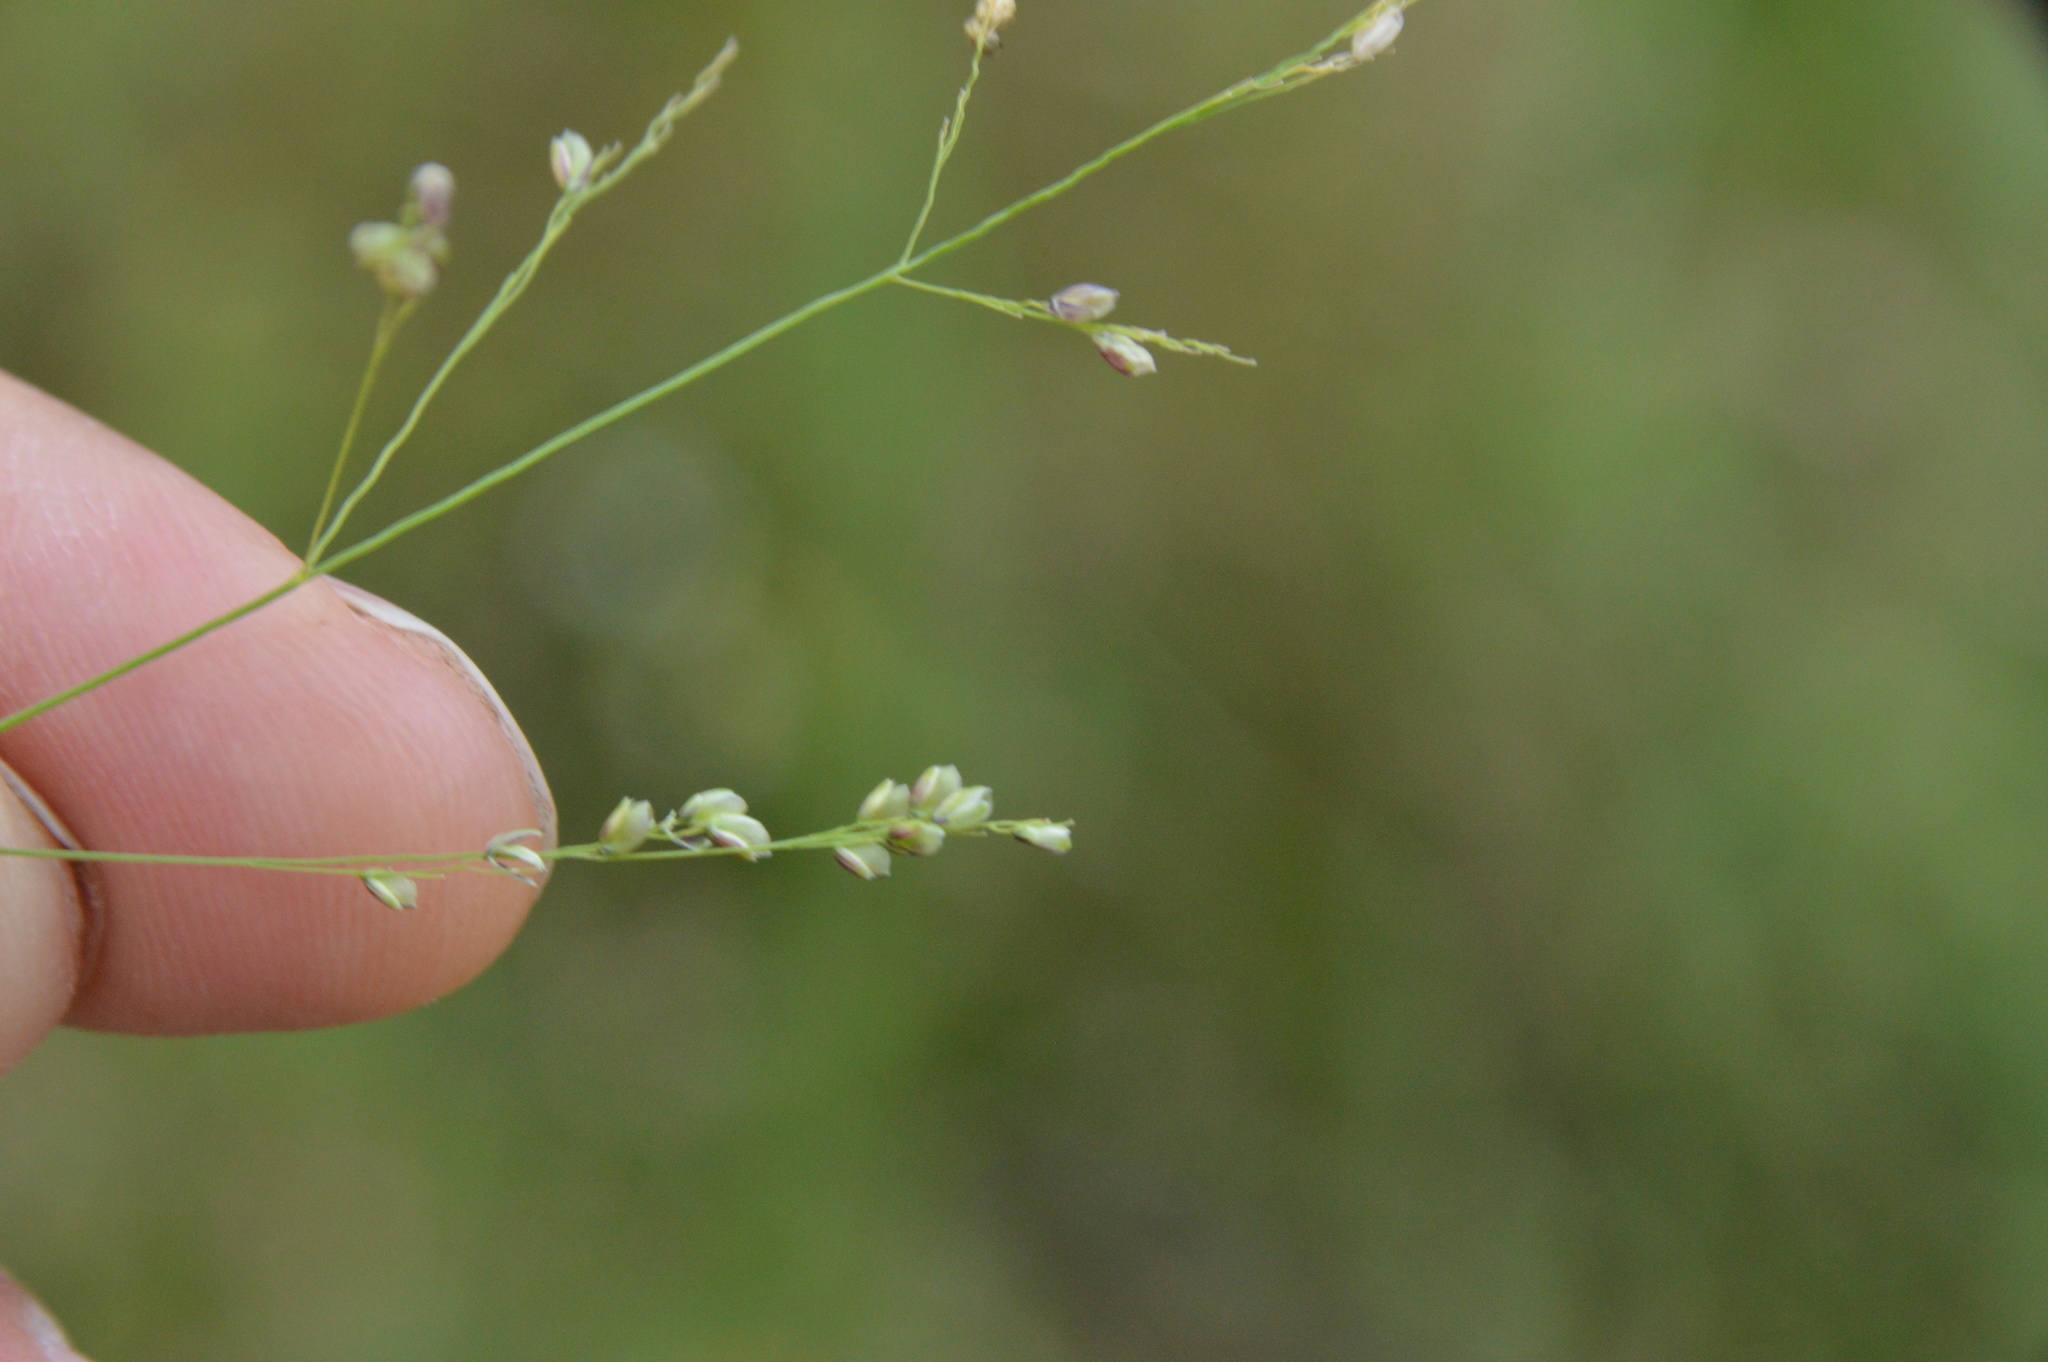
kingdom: Plantae
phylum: Tracheophyta
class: Liliopsida
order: Poales
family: Poaceae
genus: Steinchisma
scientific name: Steinchisma hians
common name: Gaping panic grass
